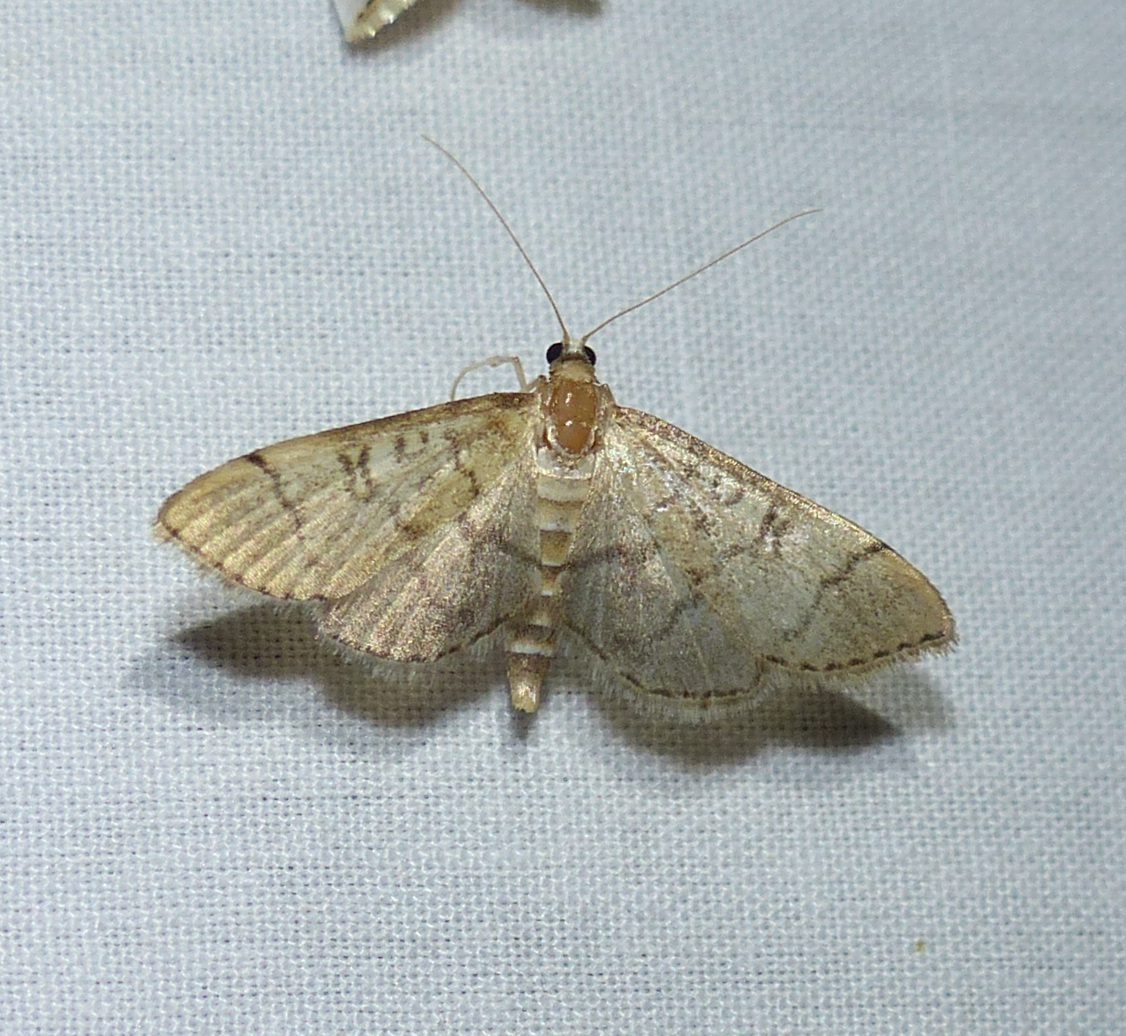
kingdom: Animalia
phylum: Arthropoda
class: Insecta
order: Lepidoptera
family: Crambidae
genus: Lamprosema
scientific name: Lamprosema Blepharomastix ranalis
